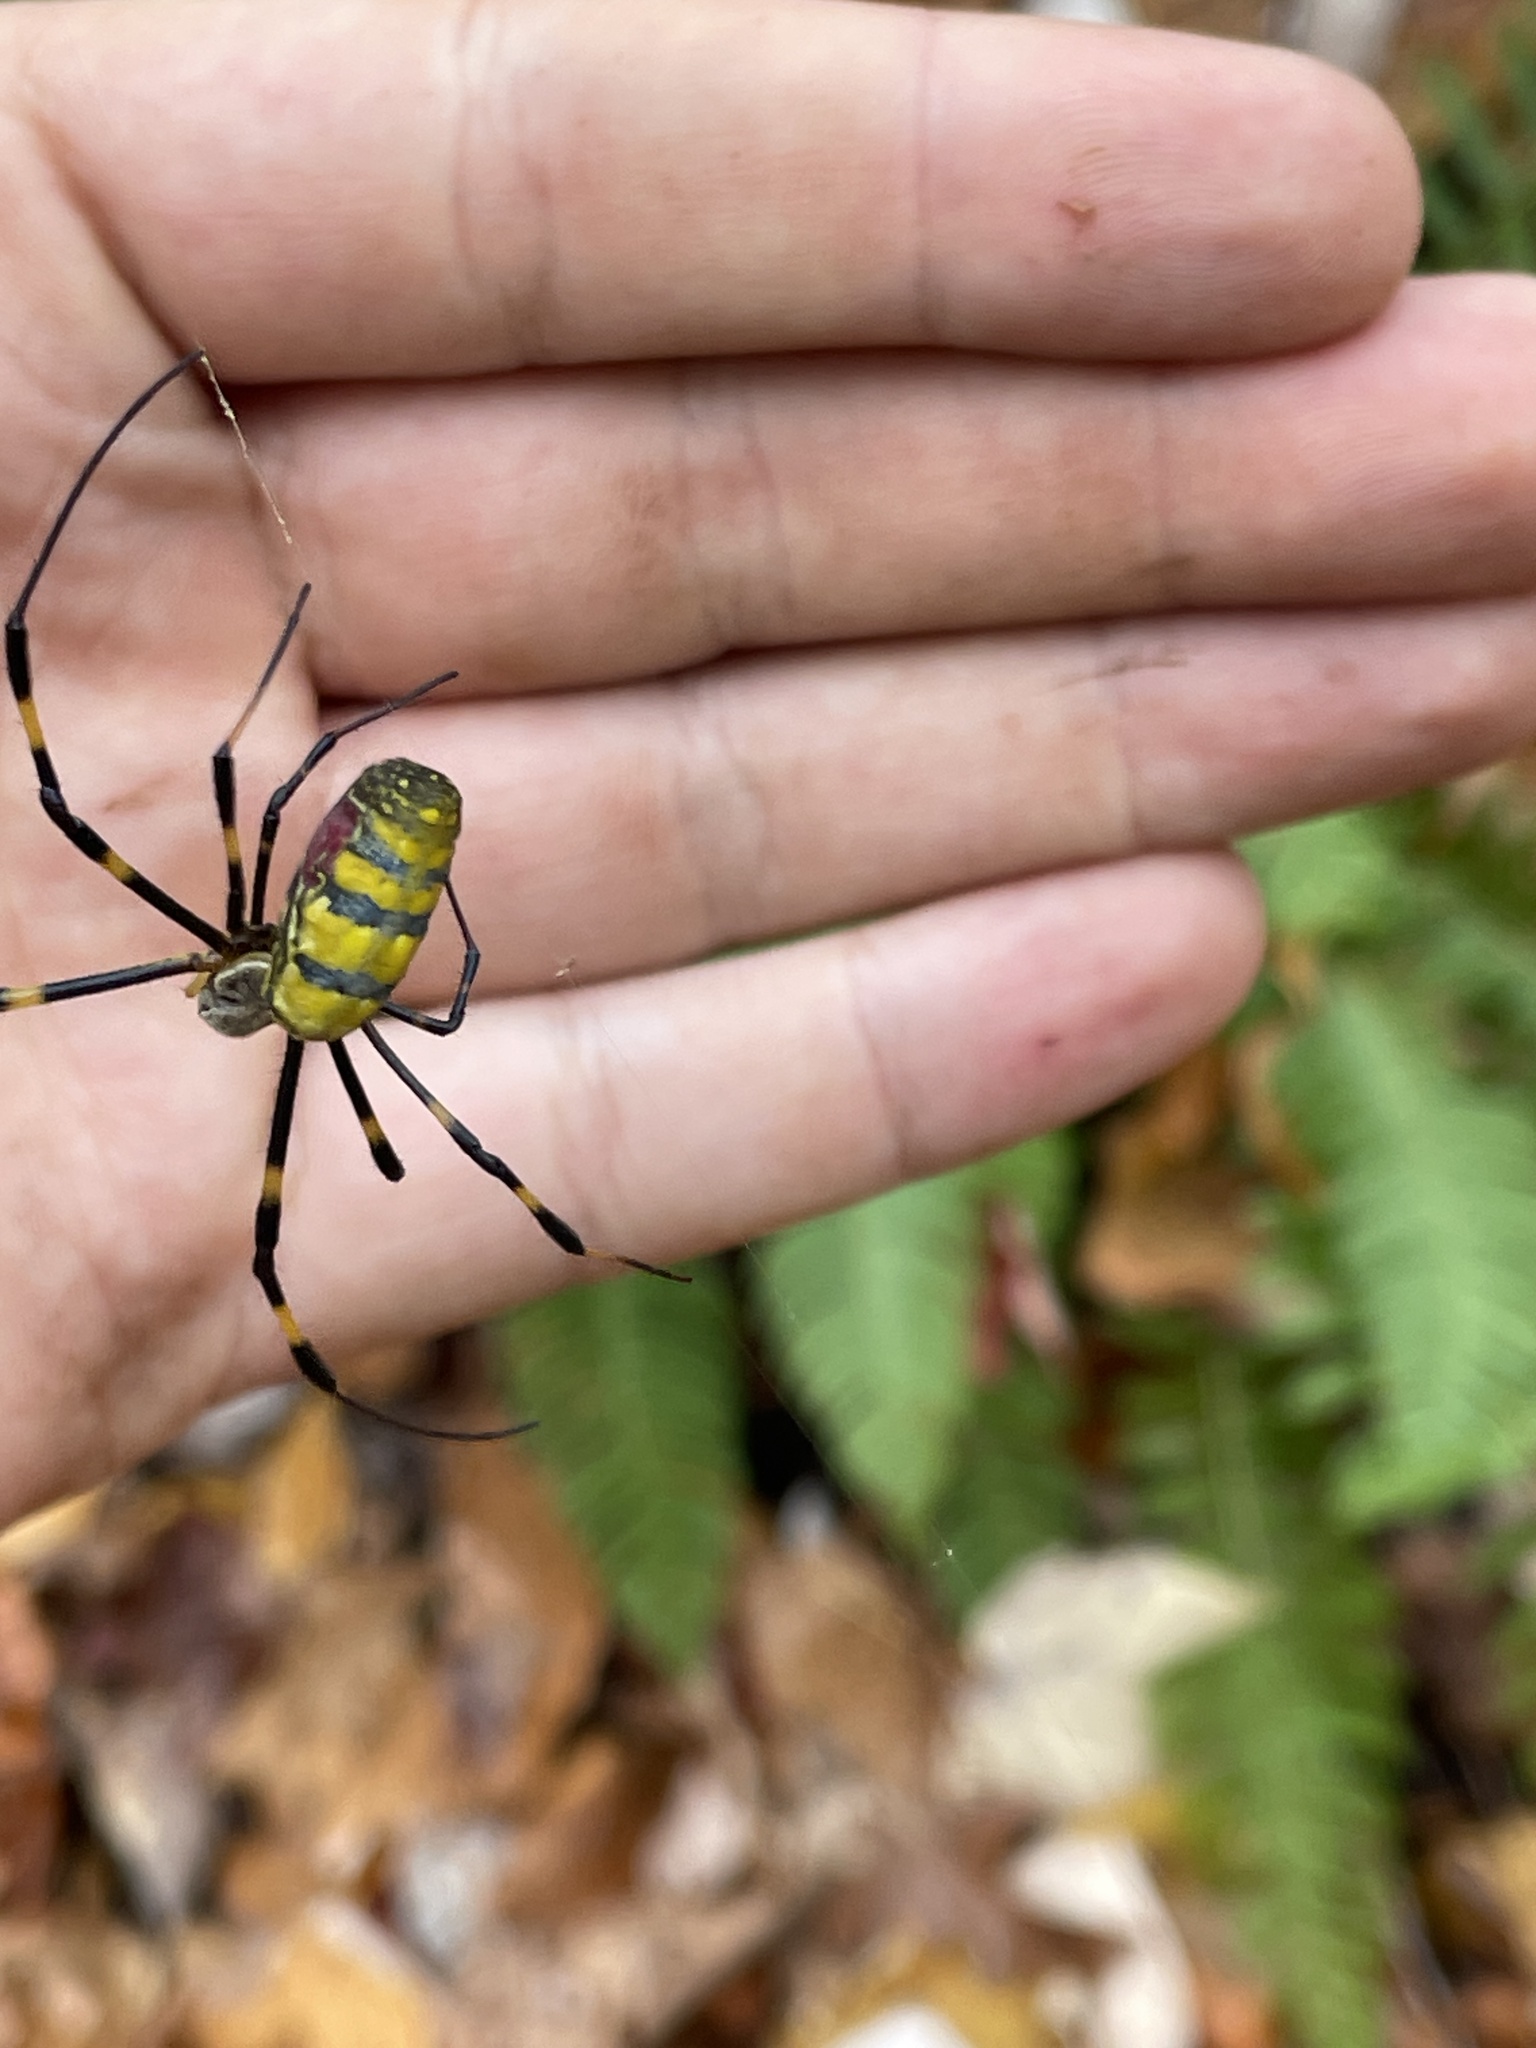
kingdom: Animalia
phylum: Arthropoda
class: Arachnida
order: Araneae
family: Araneidae
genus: Trichonephila
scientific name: Trichonephila clavata
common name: Jorō spider
